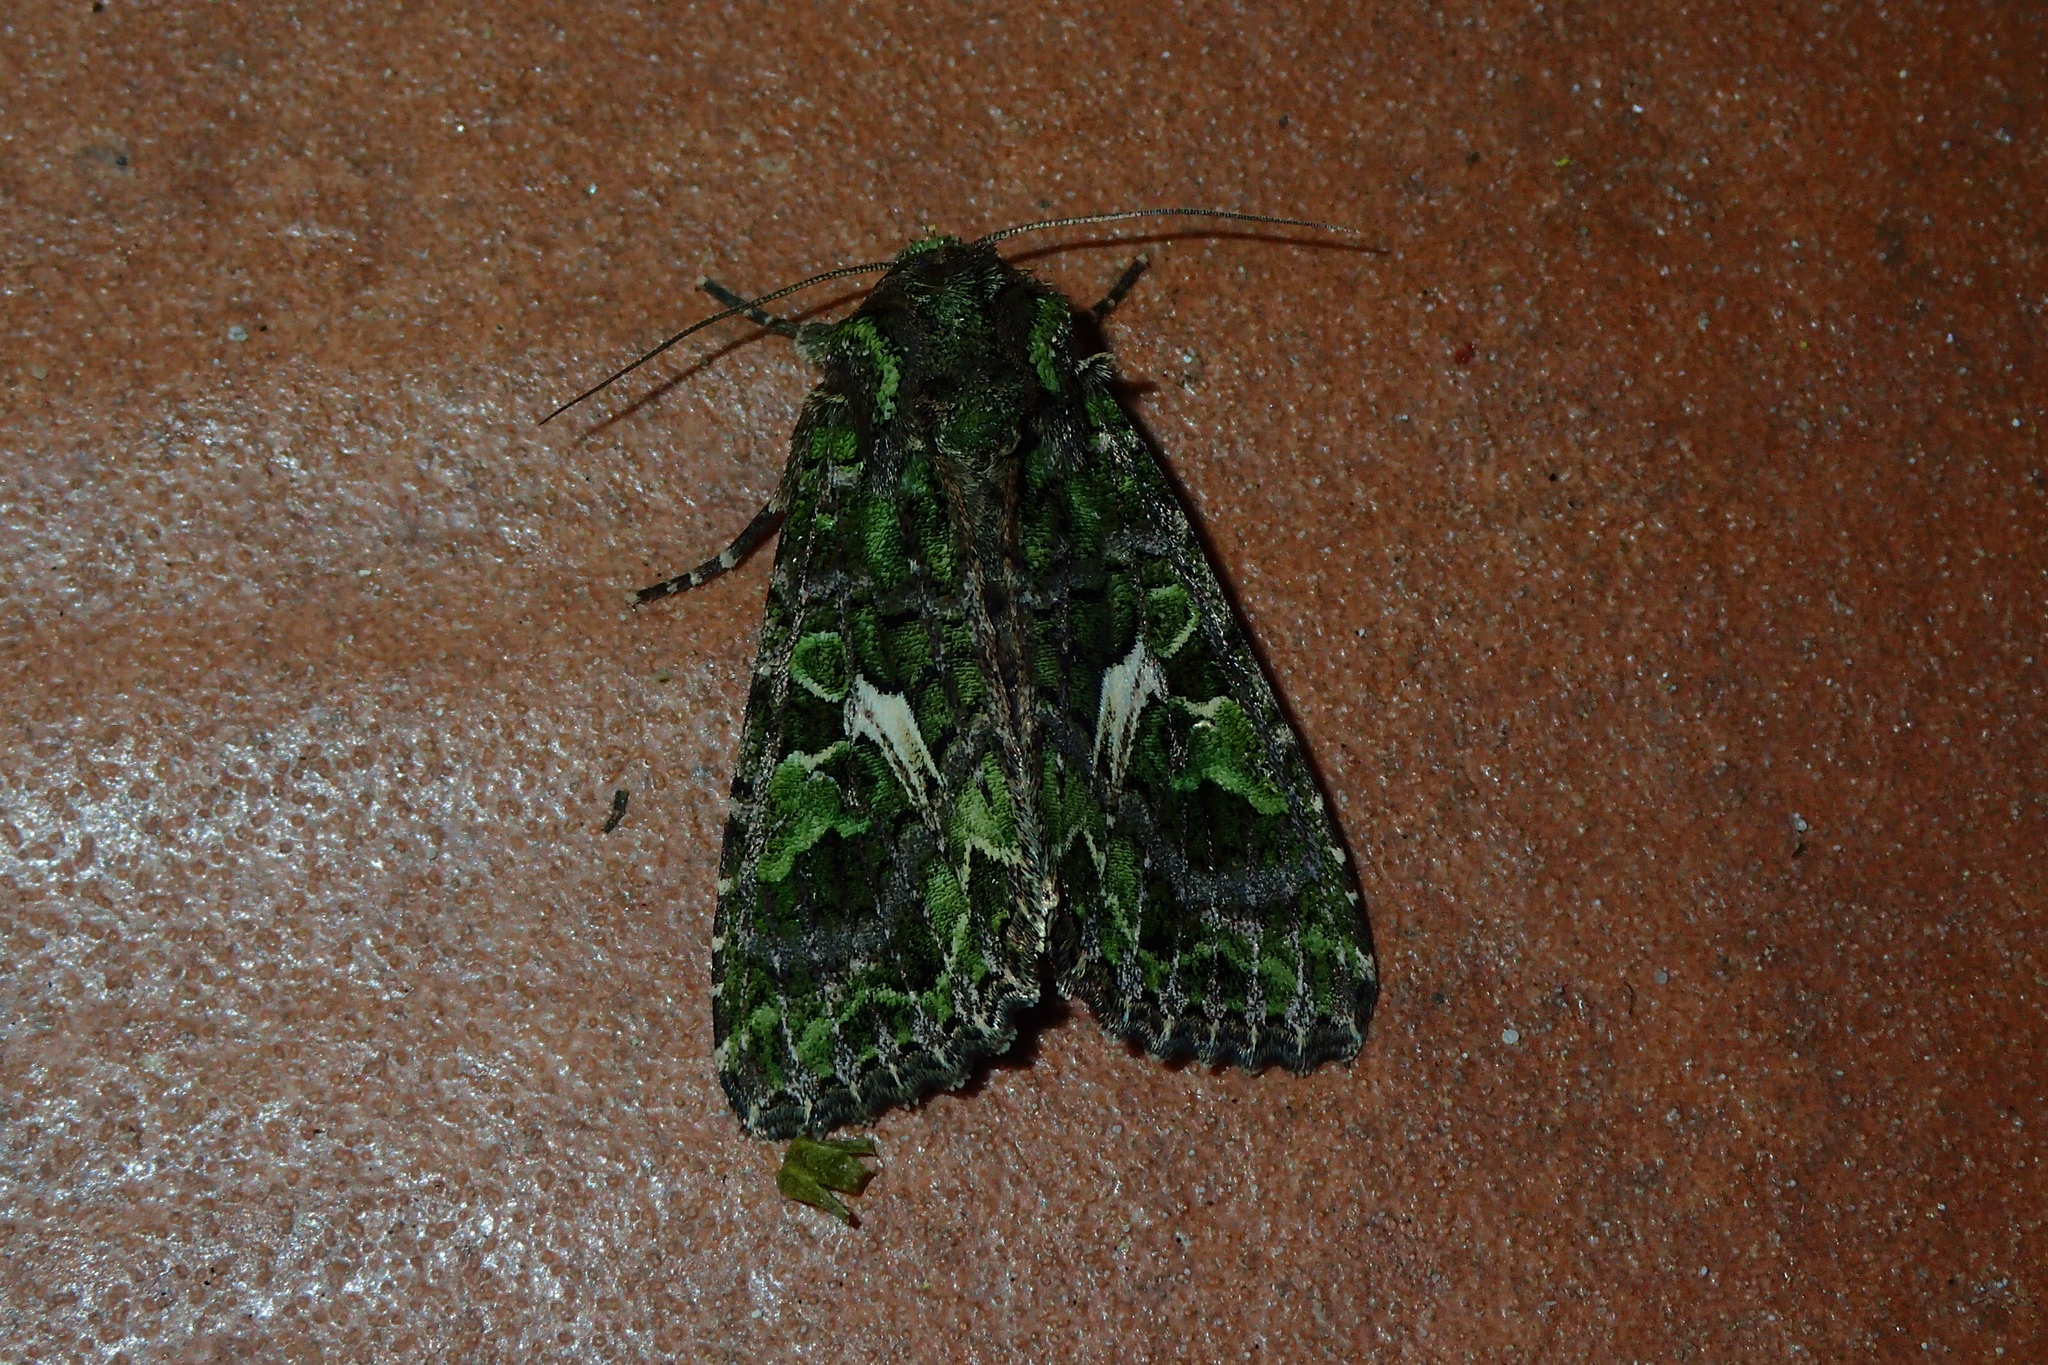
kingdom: Animalia
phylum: Arthropoda
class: Insecta
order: Lepidoptera
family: Noctuidae
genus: Trachea
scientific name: Trachea atriplicis
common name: Orache moth
